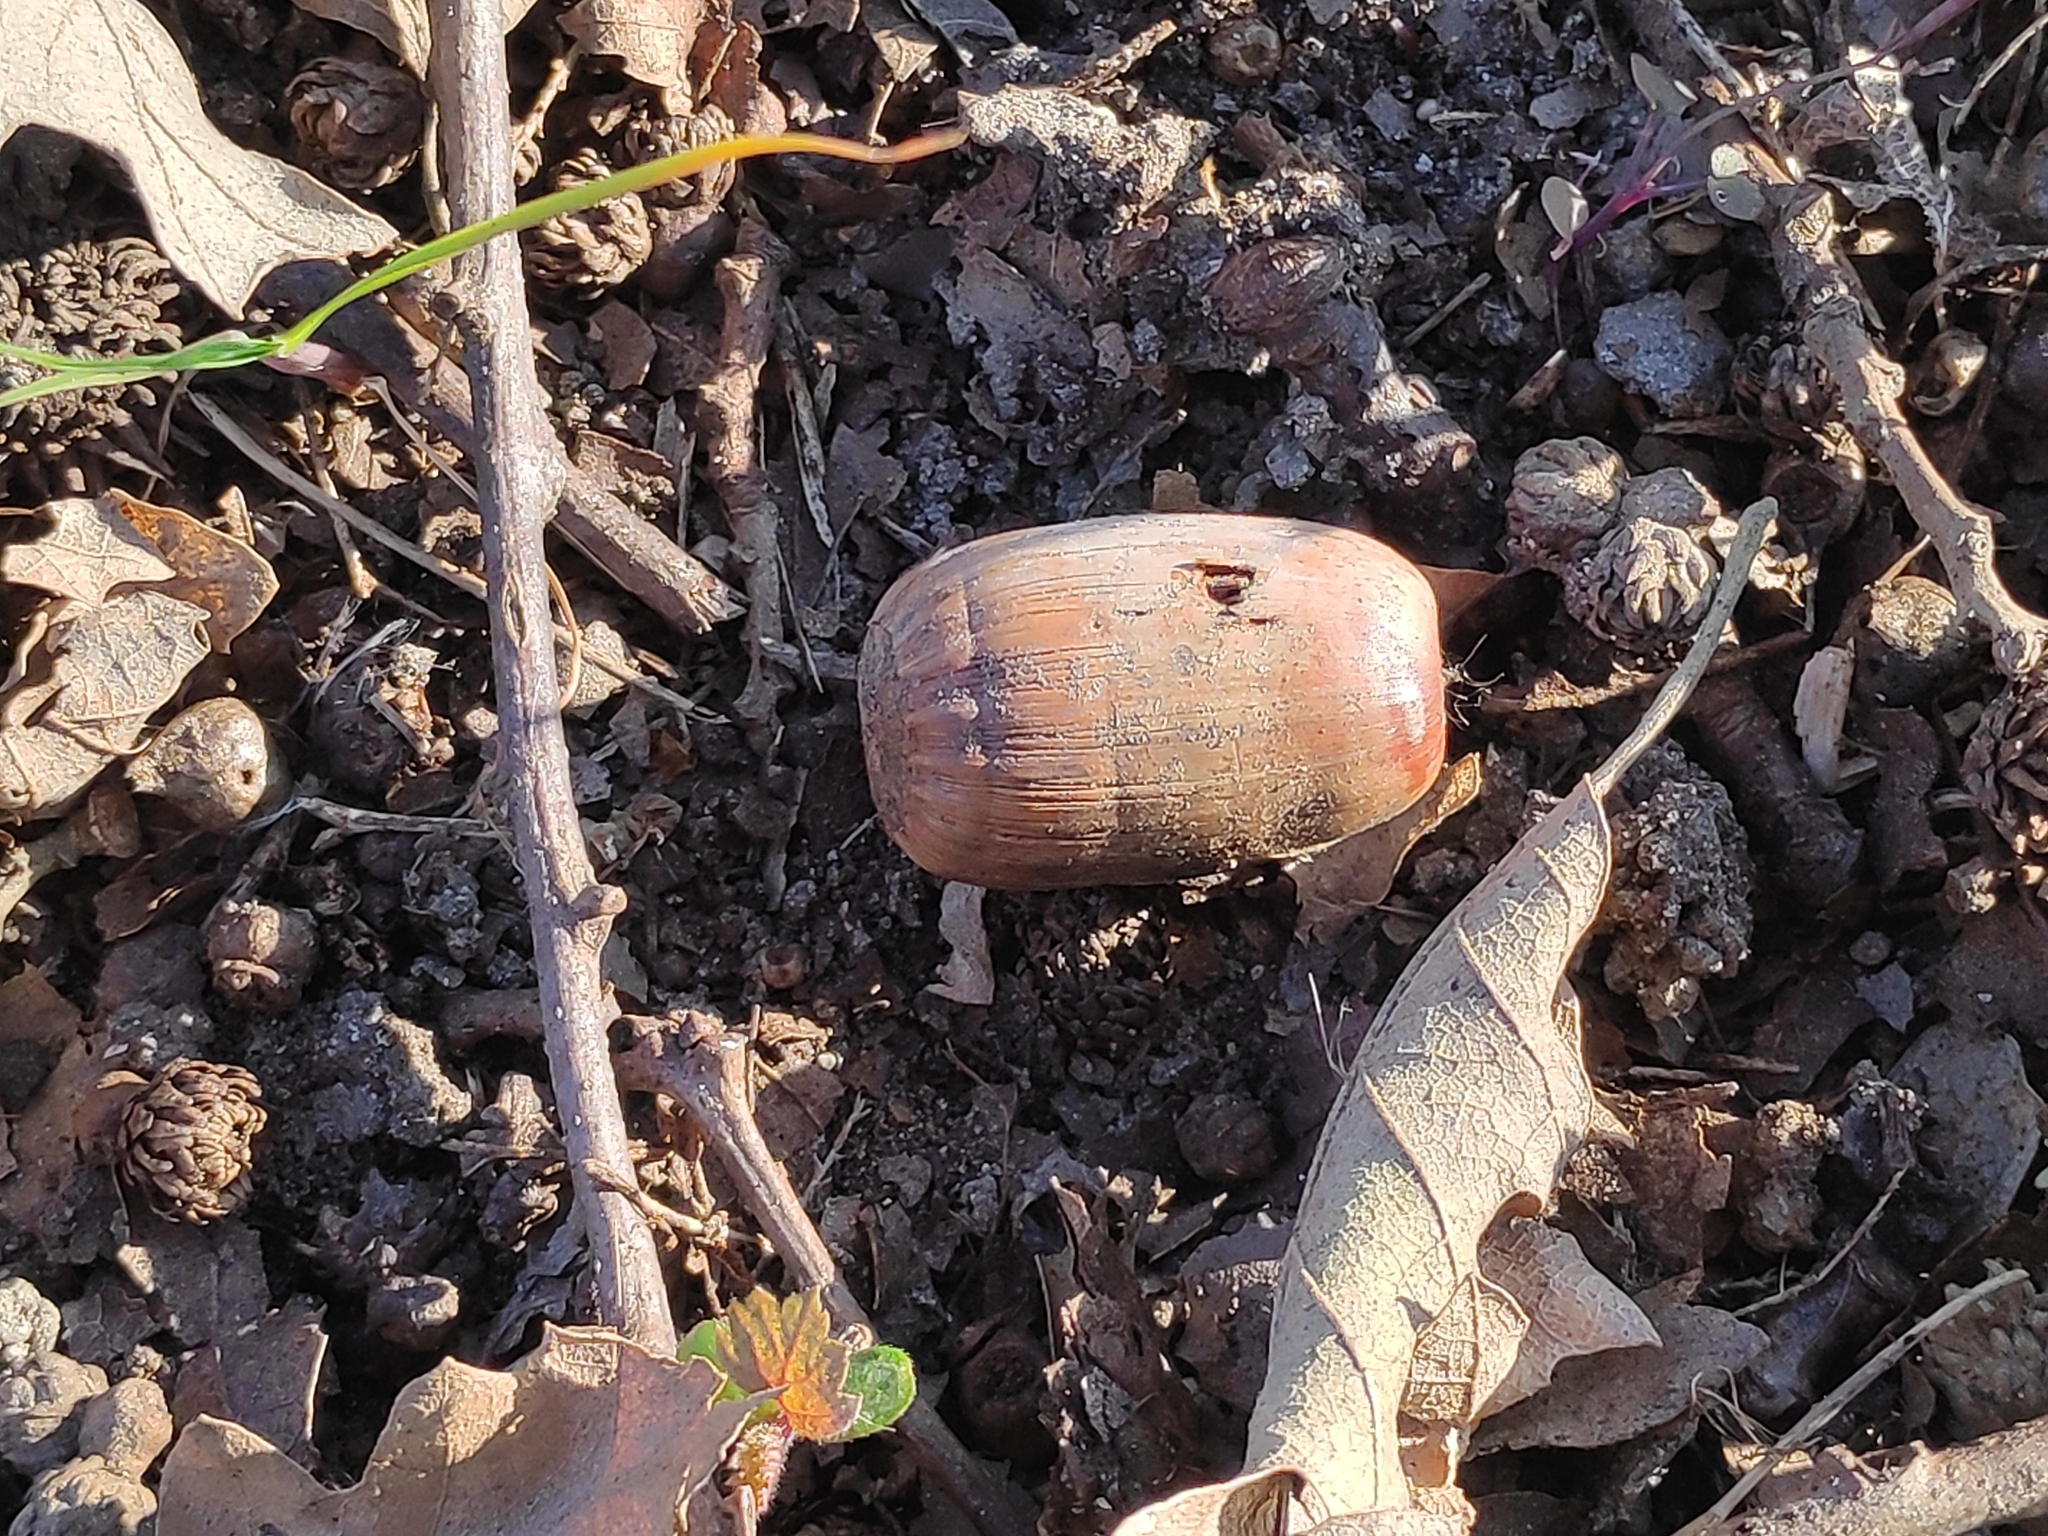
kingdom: Plantae
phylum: Tracheophyta
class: Magnoliopsida
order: Fagales
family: Fagaceae
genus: Quercus
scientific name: Quercus cerris
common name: Turkey oak
